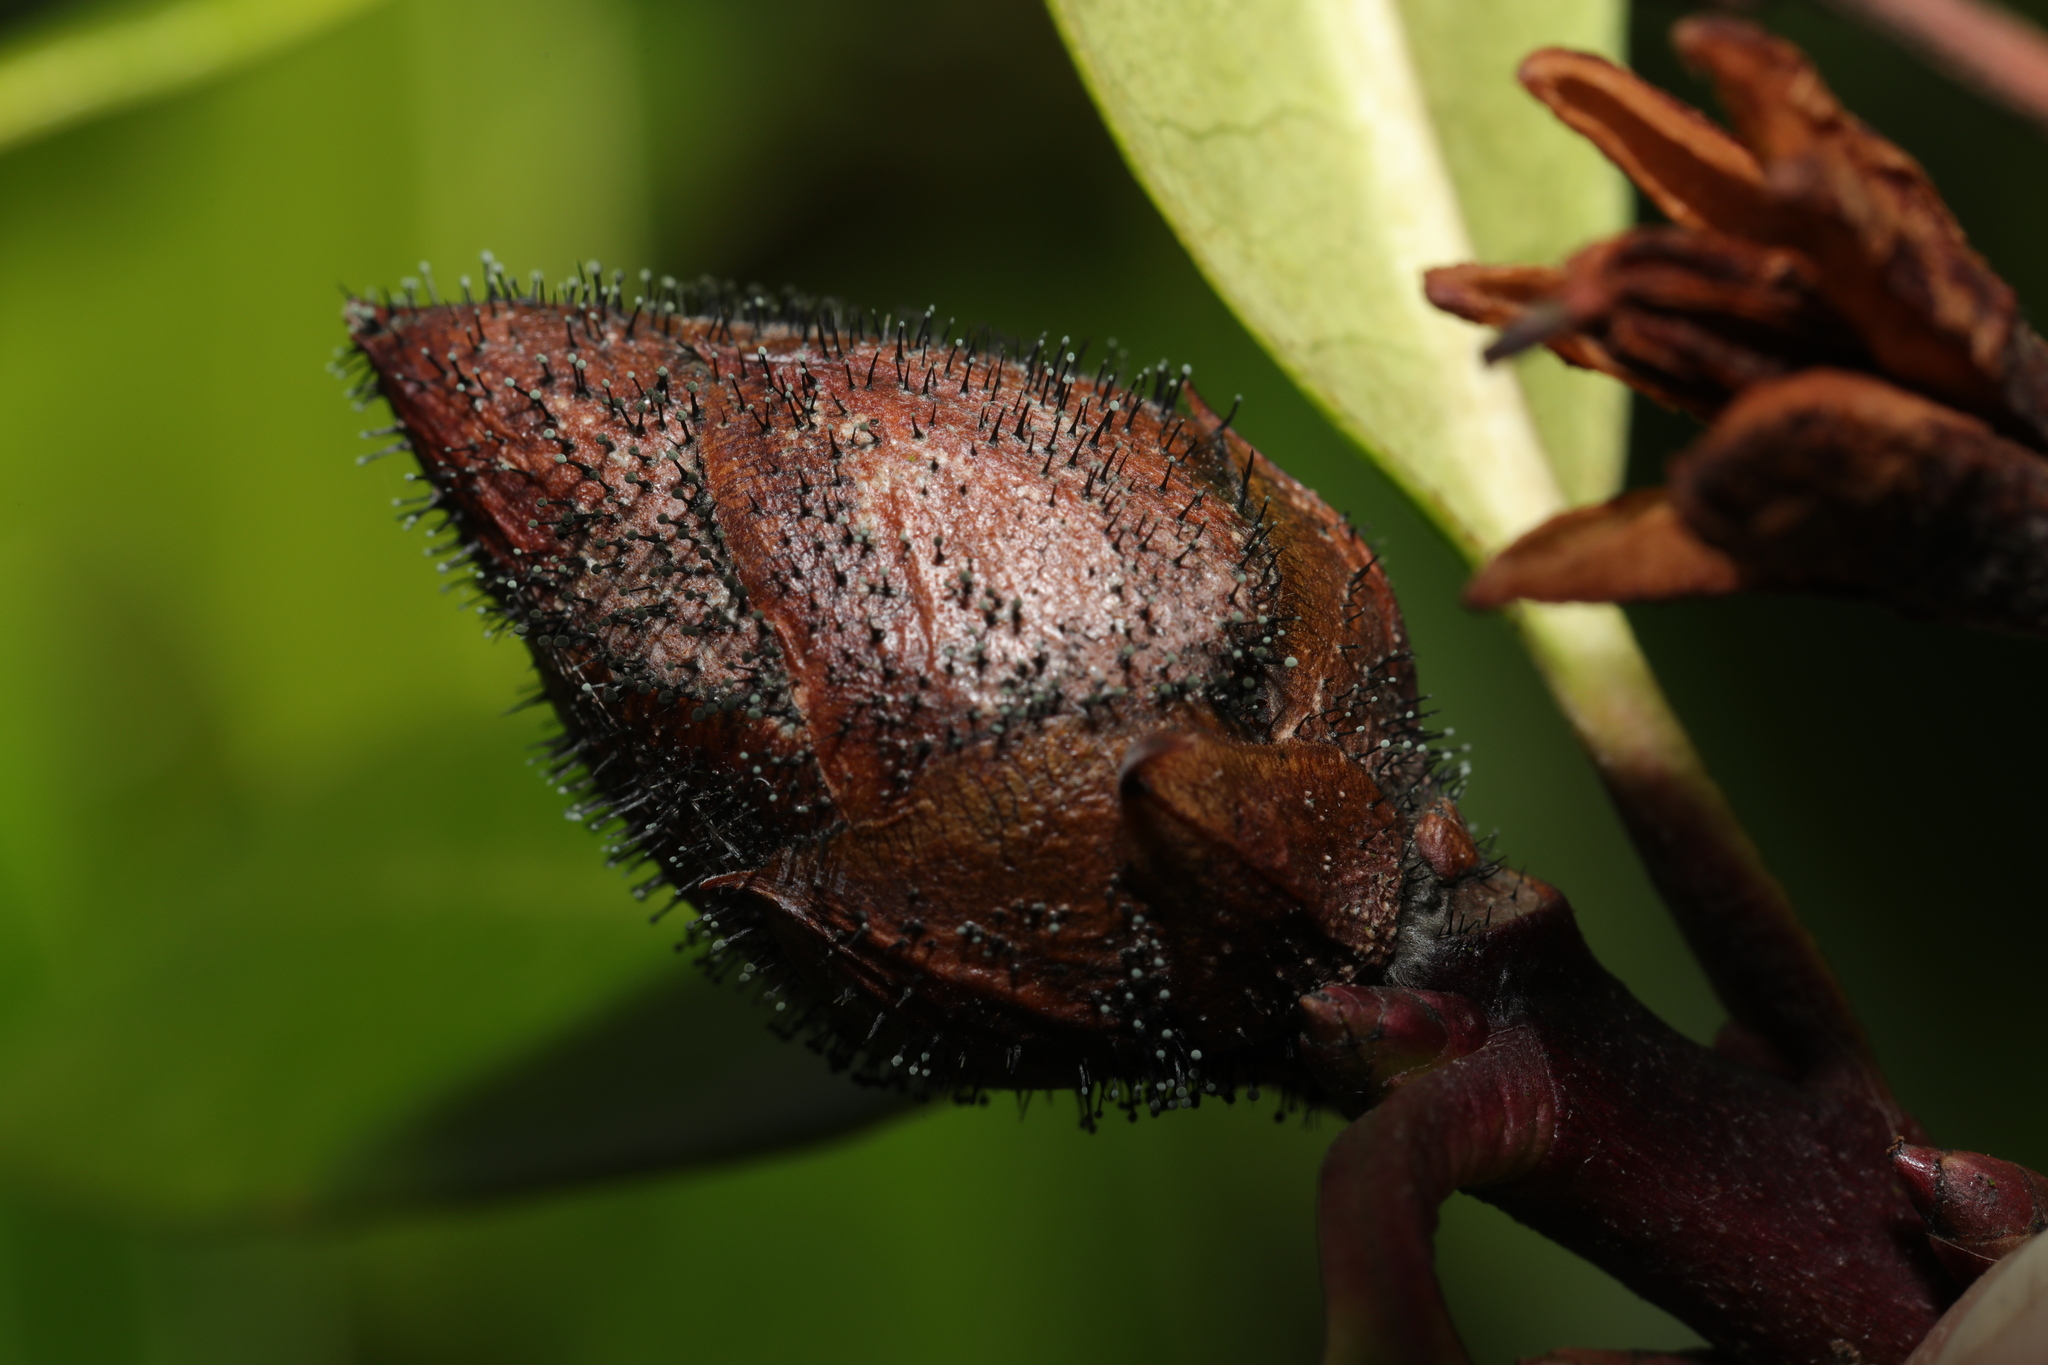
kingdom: Fungi
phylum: Ascomycota
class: Dothideomycetes
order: Pleosporales
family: Melanommataceae
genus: Seifertia
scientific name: Seifertia azaleae
